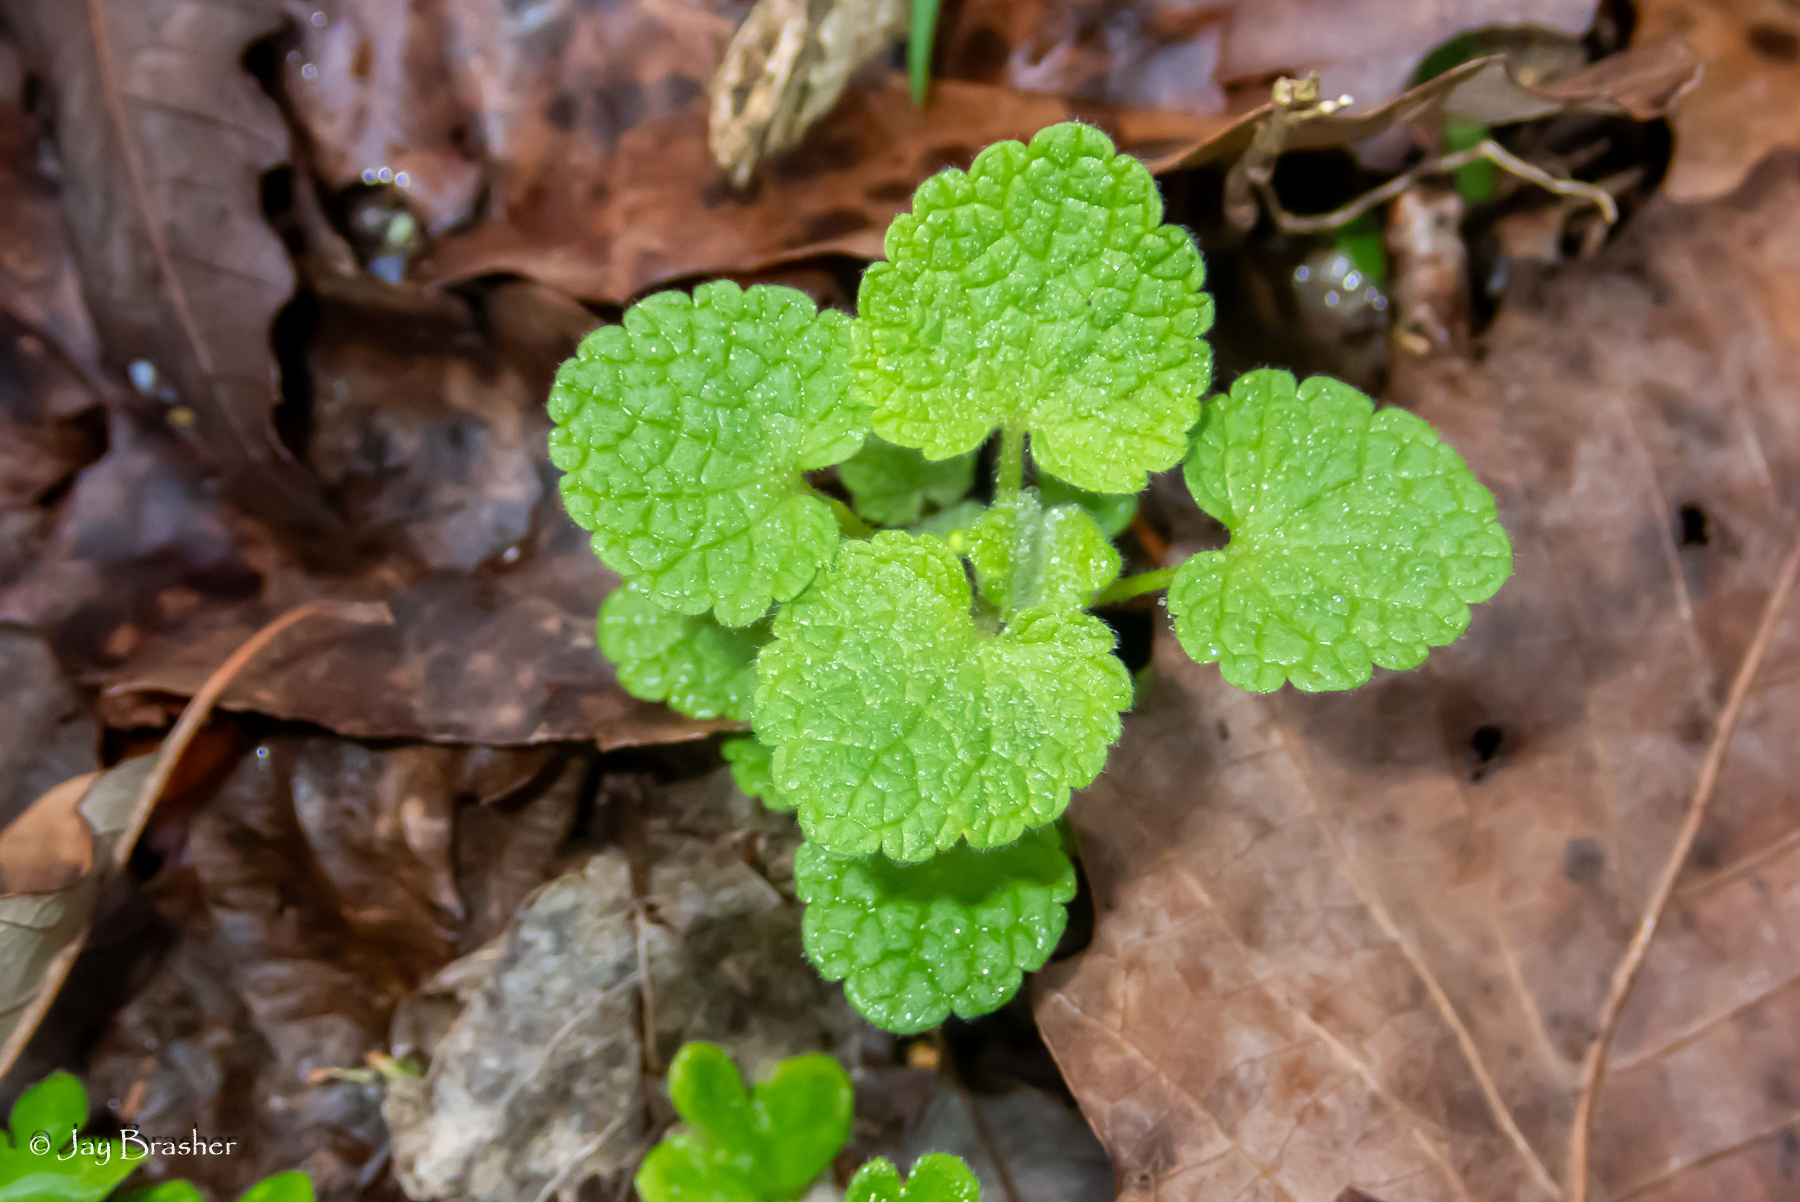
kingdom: Plantae
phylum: Tracheophyta
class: Magnoliopsida
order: Lamiales
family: Lamiaceae
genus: Lamium
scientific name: Lamium purpureum
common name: Red dead-nettle
